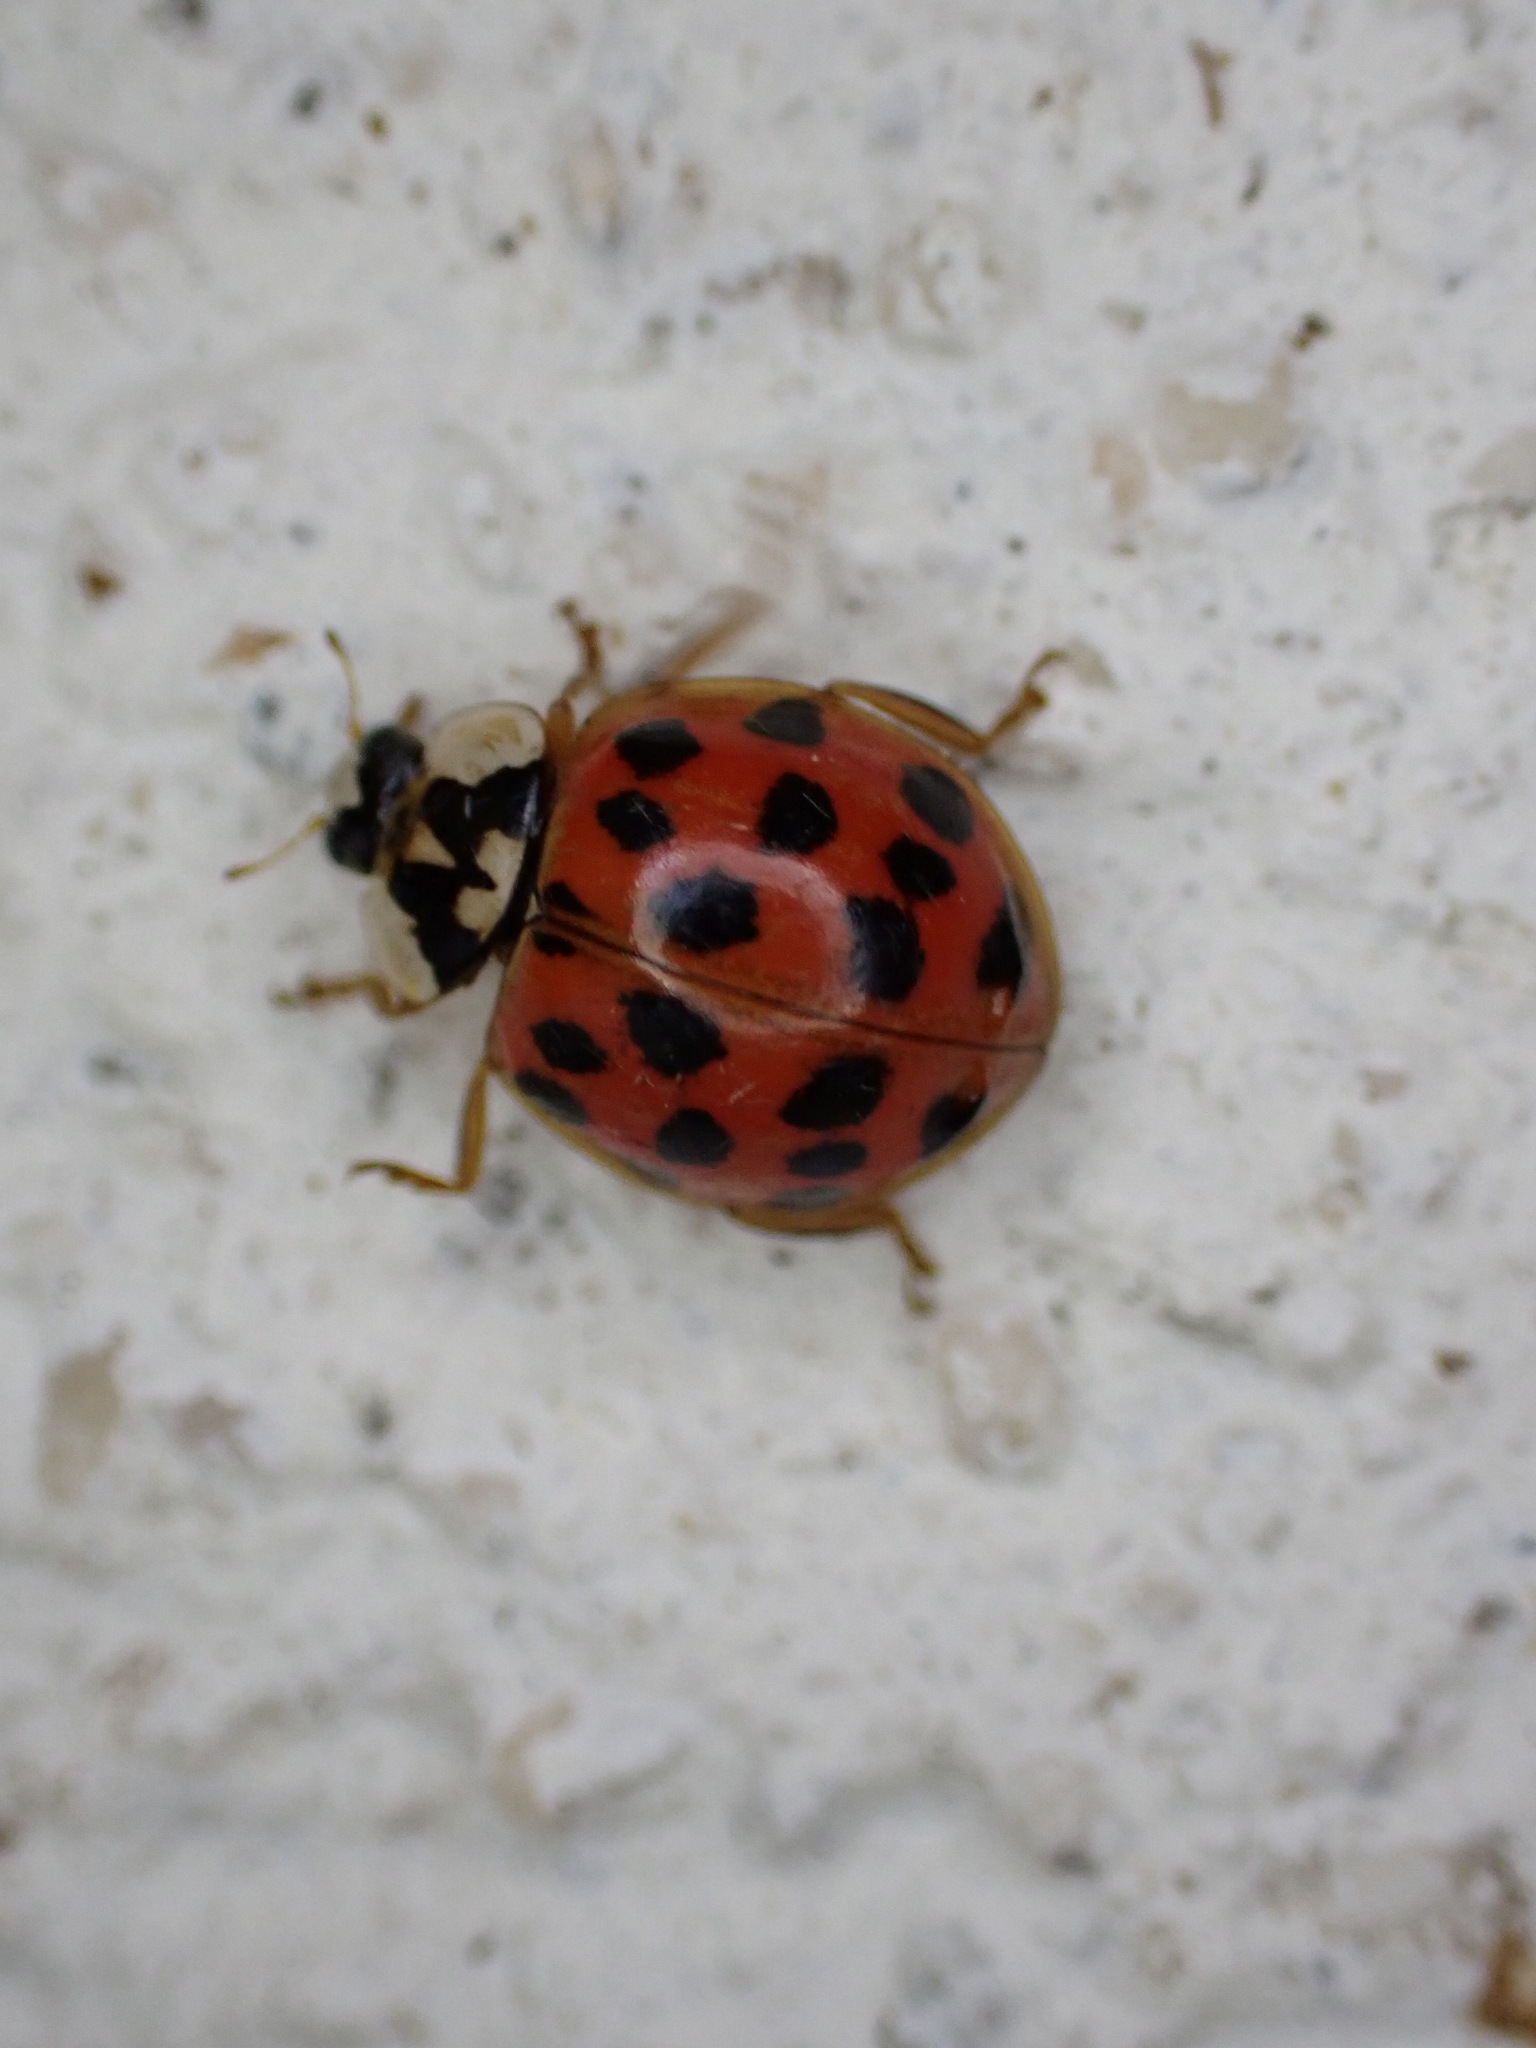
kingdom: Animalia
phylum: Arthropoda
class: Insecta
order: Coleoptera
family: Coccinellidae
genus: Harmonia
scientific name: Harmonia axyridis
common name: Harlequin ladybird
